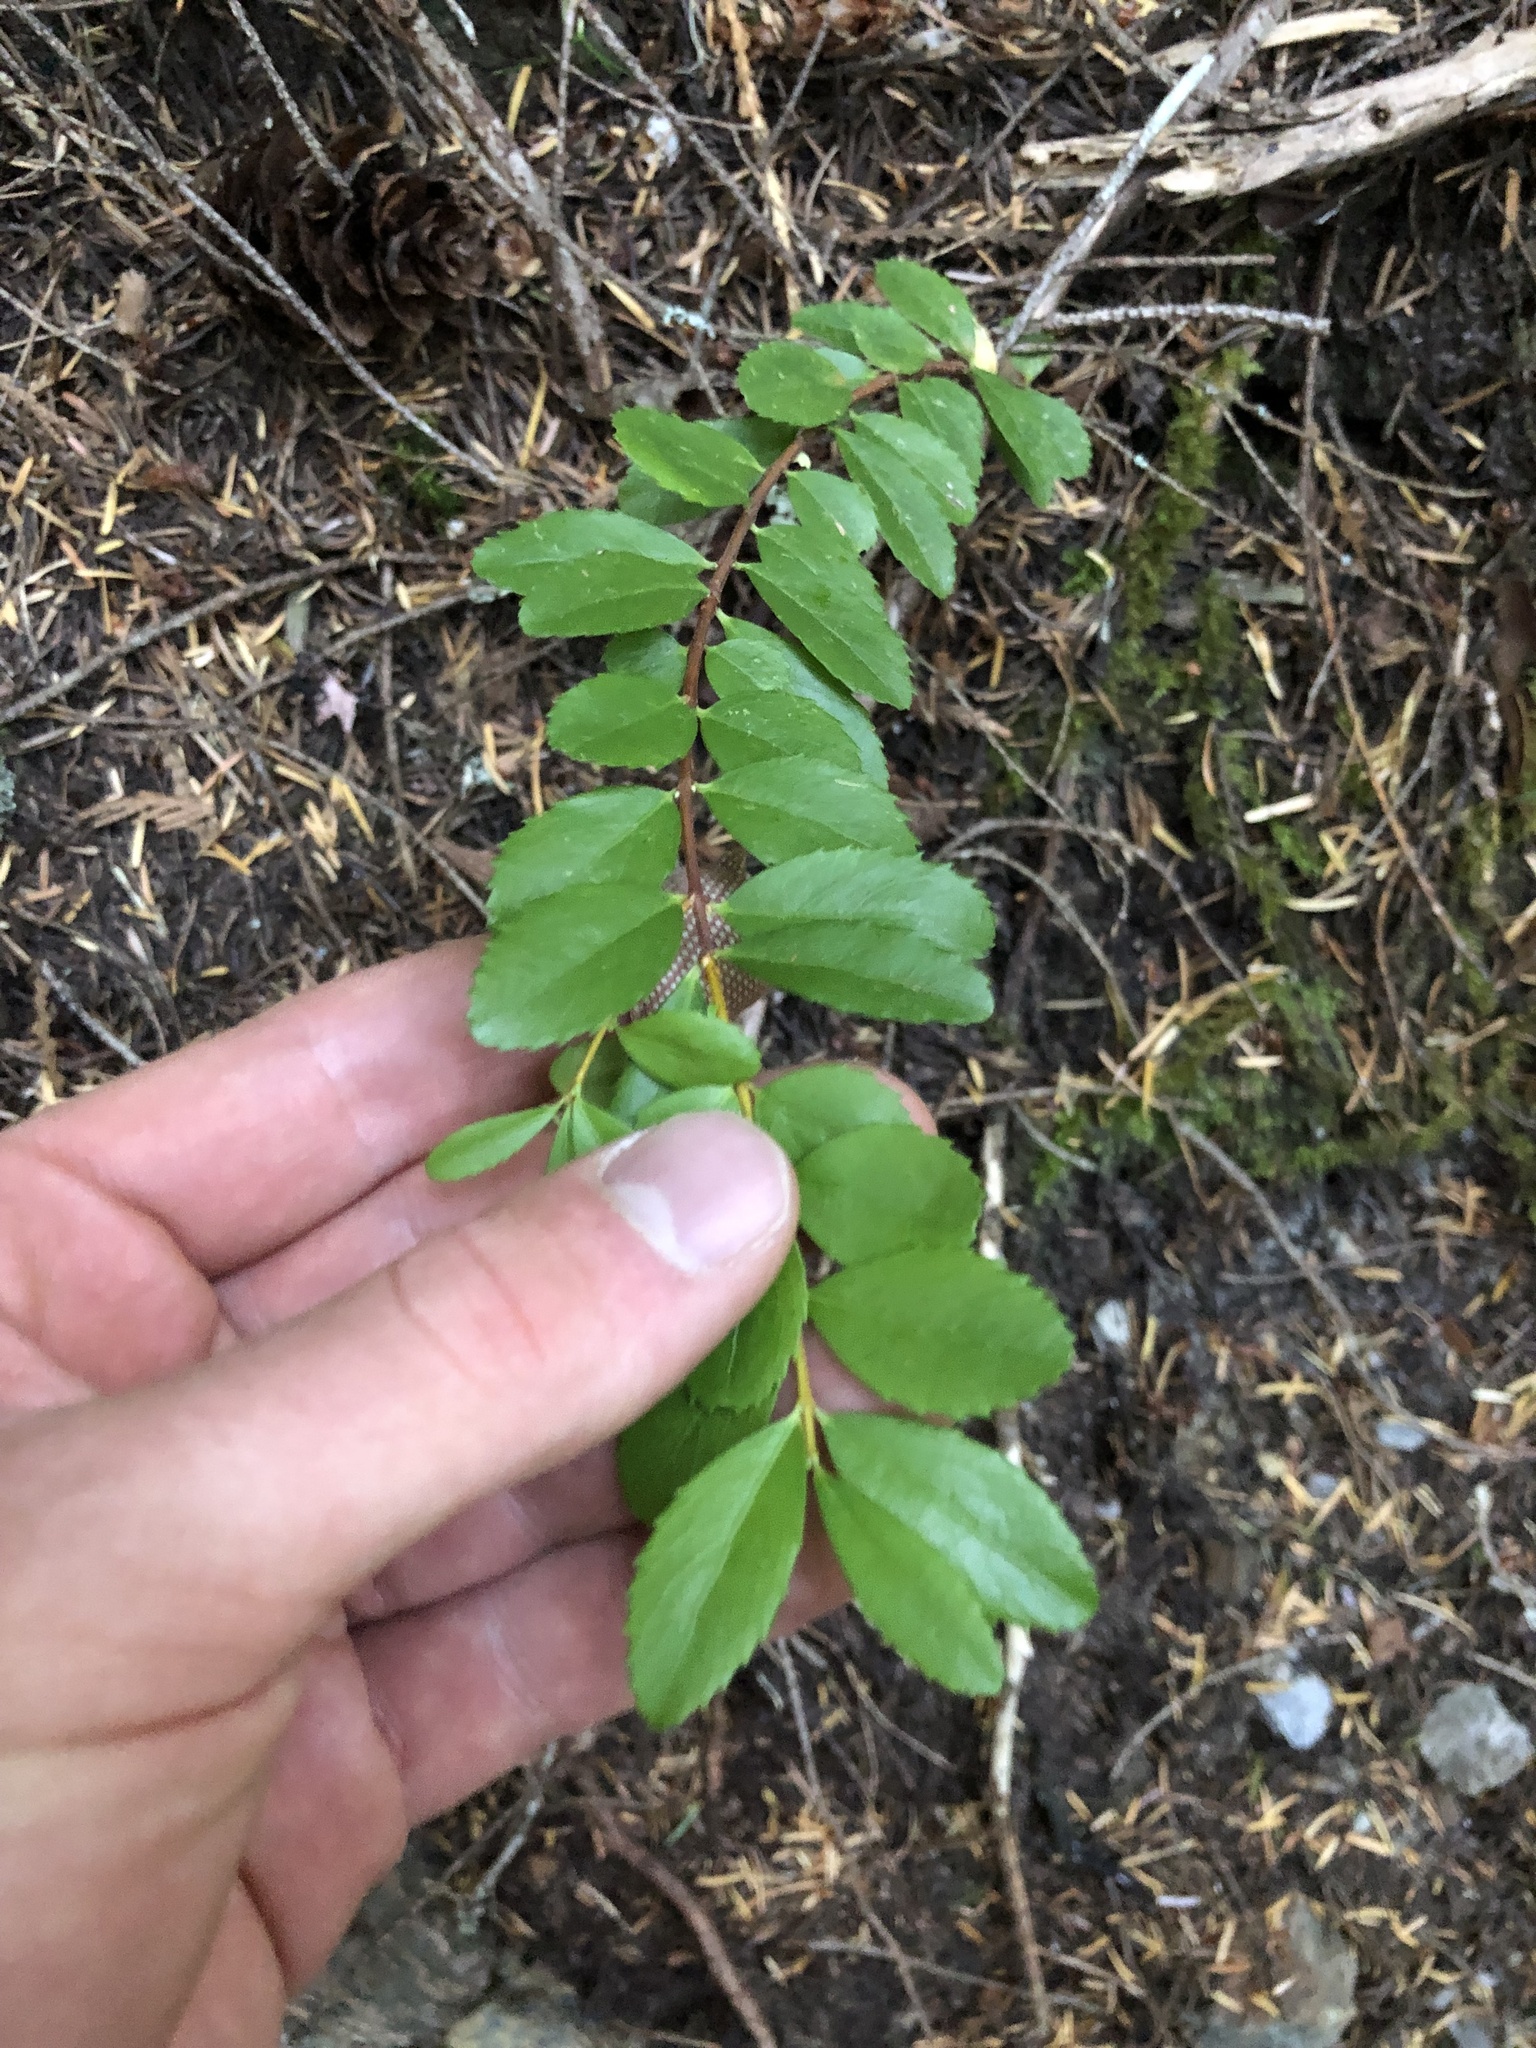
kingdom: Plantae
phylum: Tracheophyta
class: Magnoliopsida
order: Celastrales
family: Celastraceae
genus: Paxistima
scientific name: Paxistima myrsinites
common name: Mountain-lover
